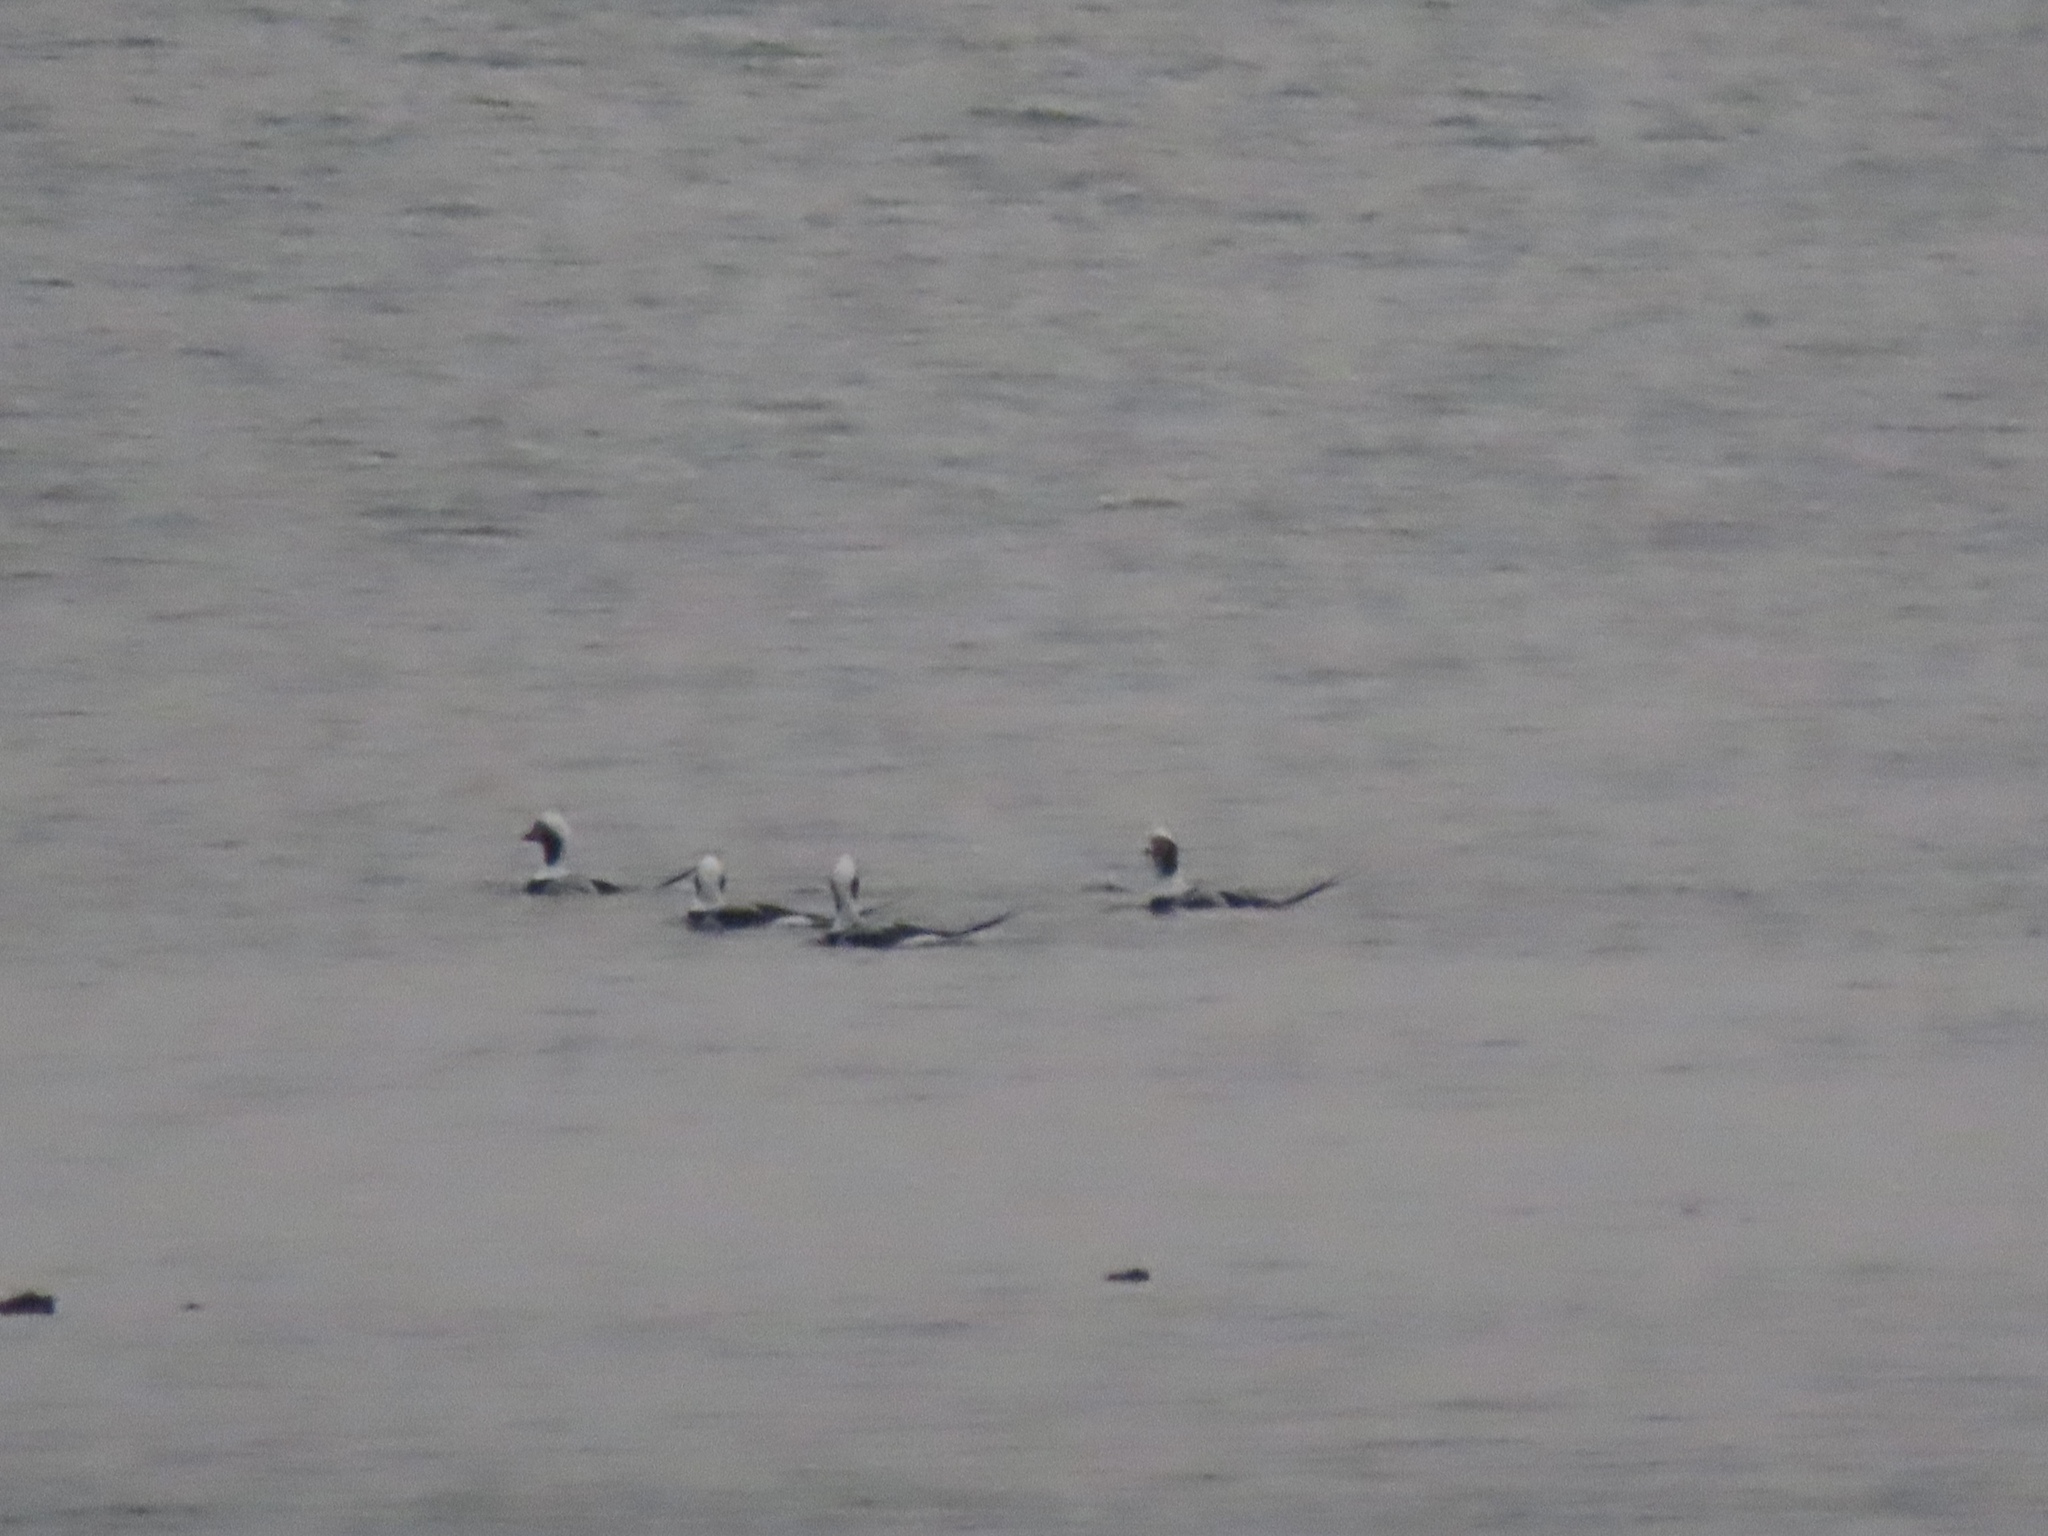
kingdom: Animalia
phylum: Chordata
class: Aves
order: Anseriformes
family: Anatidae
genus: Clangula
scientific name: Clangula hyemalis
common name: Long-tailed duck
